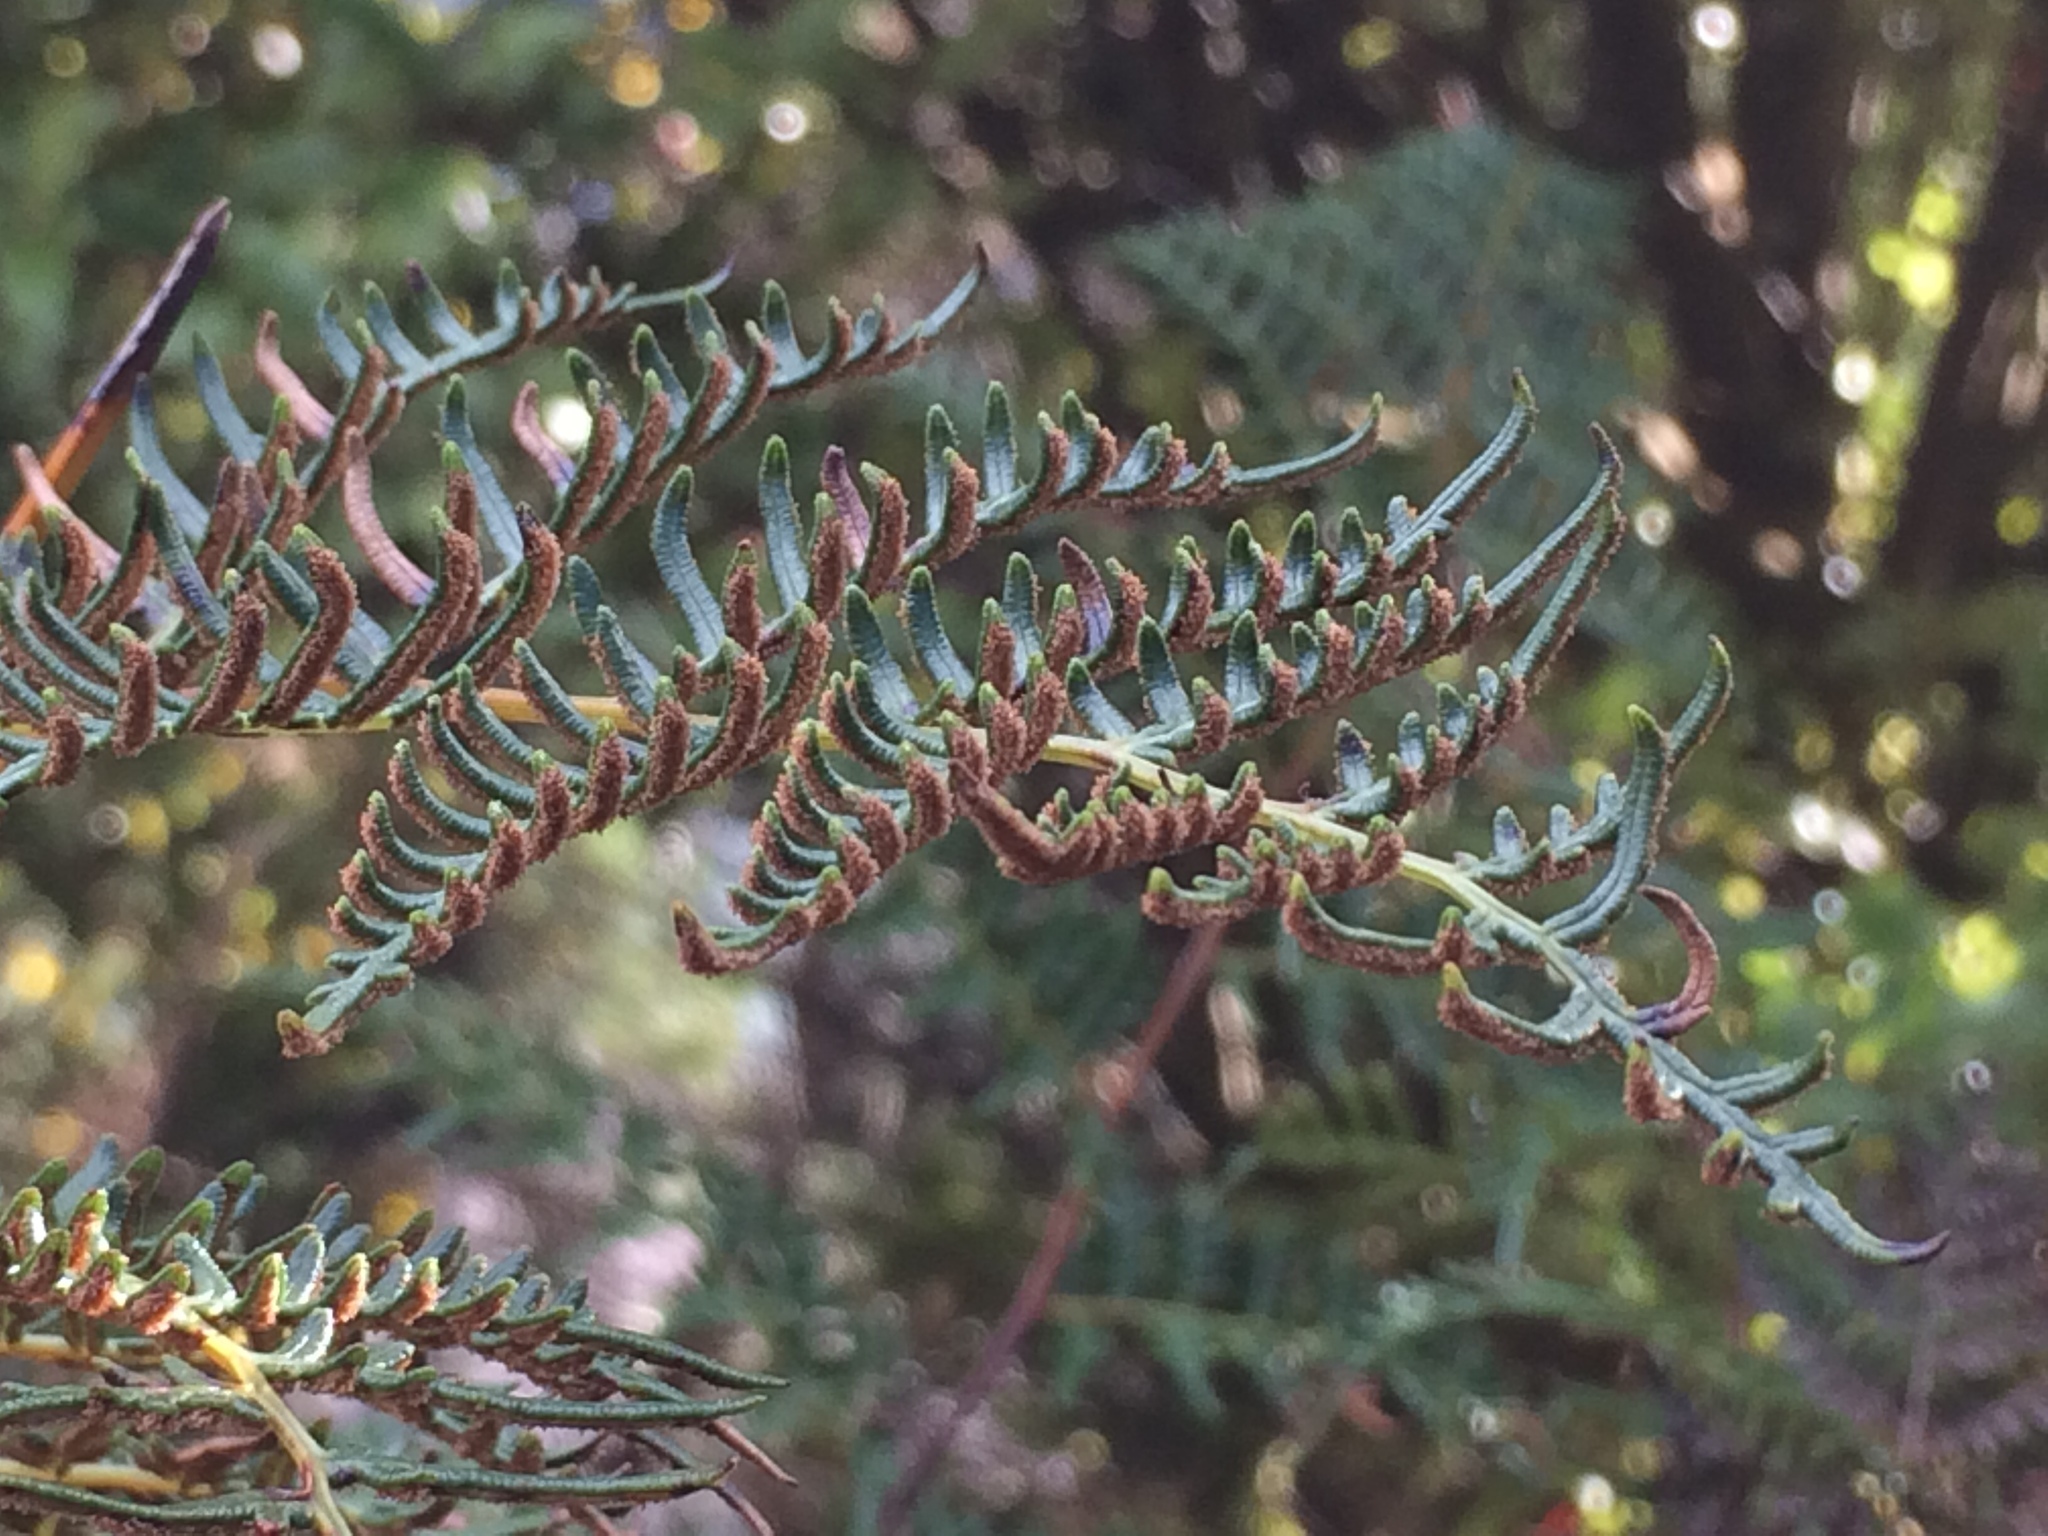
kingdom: Plantae
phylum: Tracheophyta
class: Polypodiopsida
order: Polypodiales
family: Dennstaedtiaceae
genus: Pteridium
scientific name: Pteridium esculentum
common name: Bracken fern
